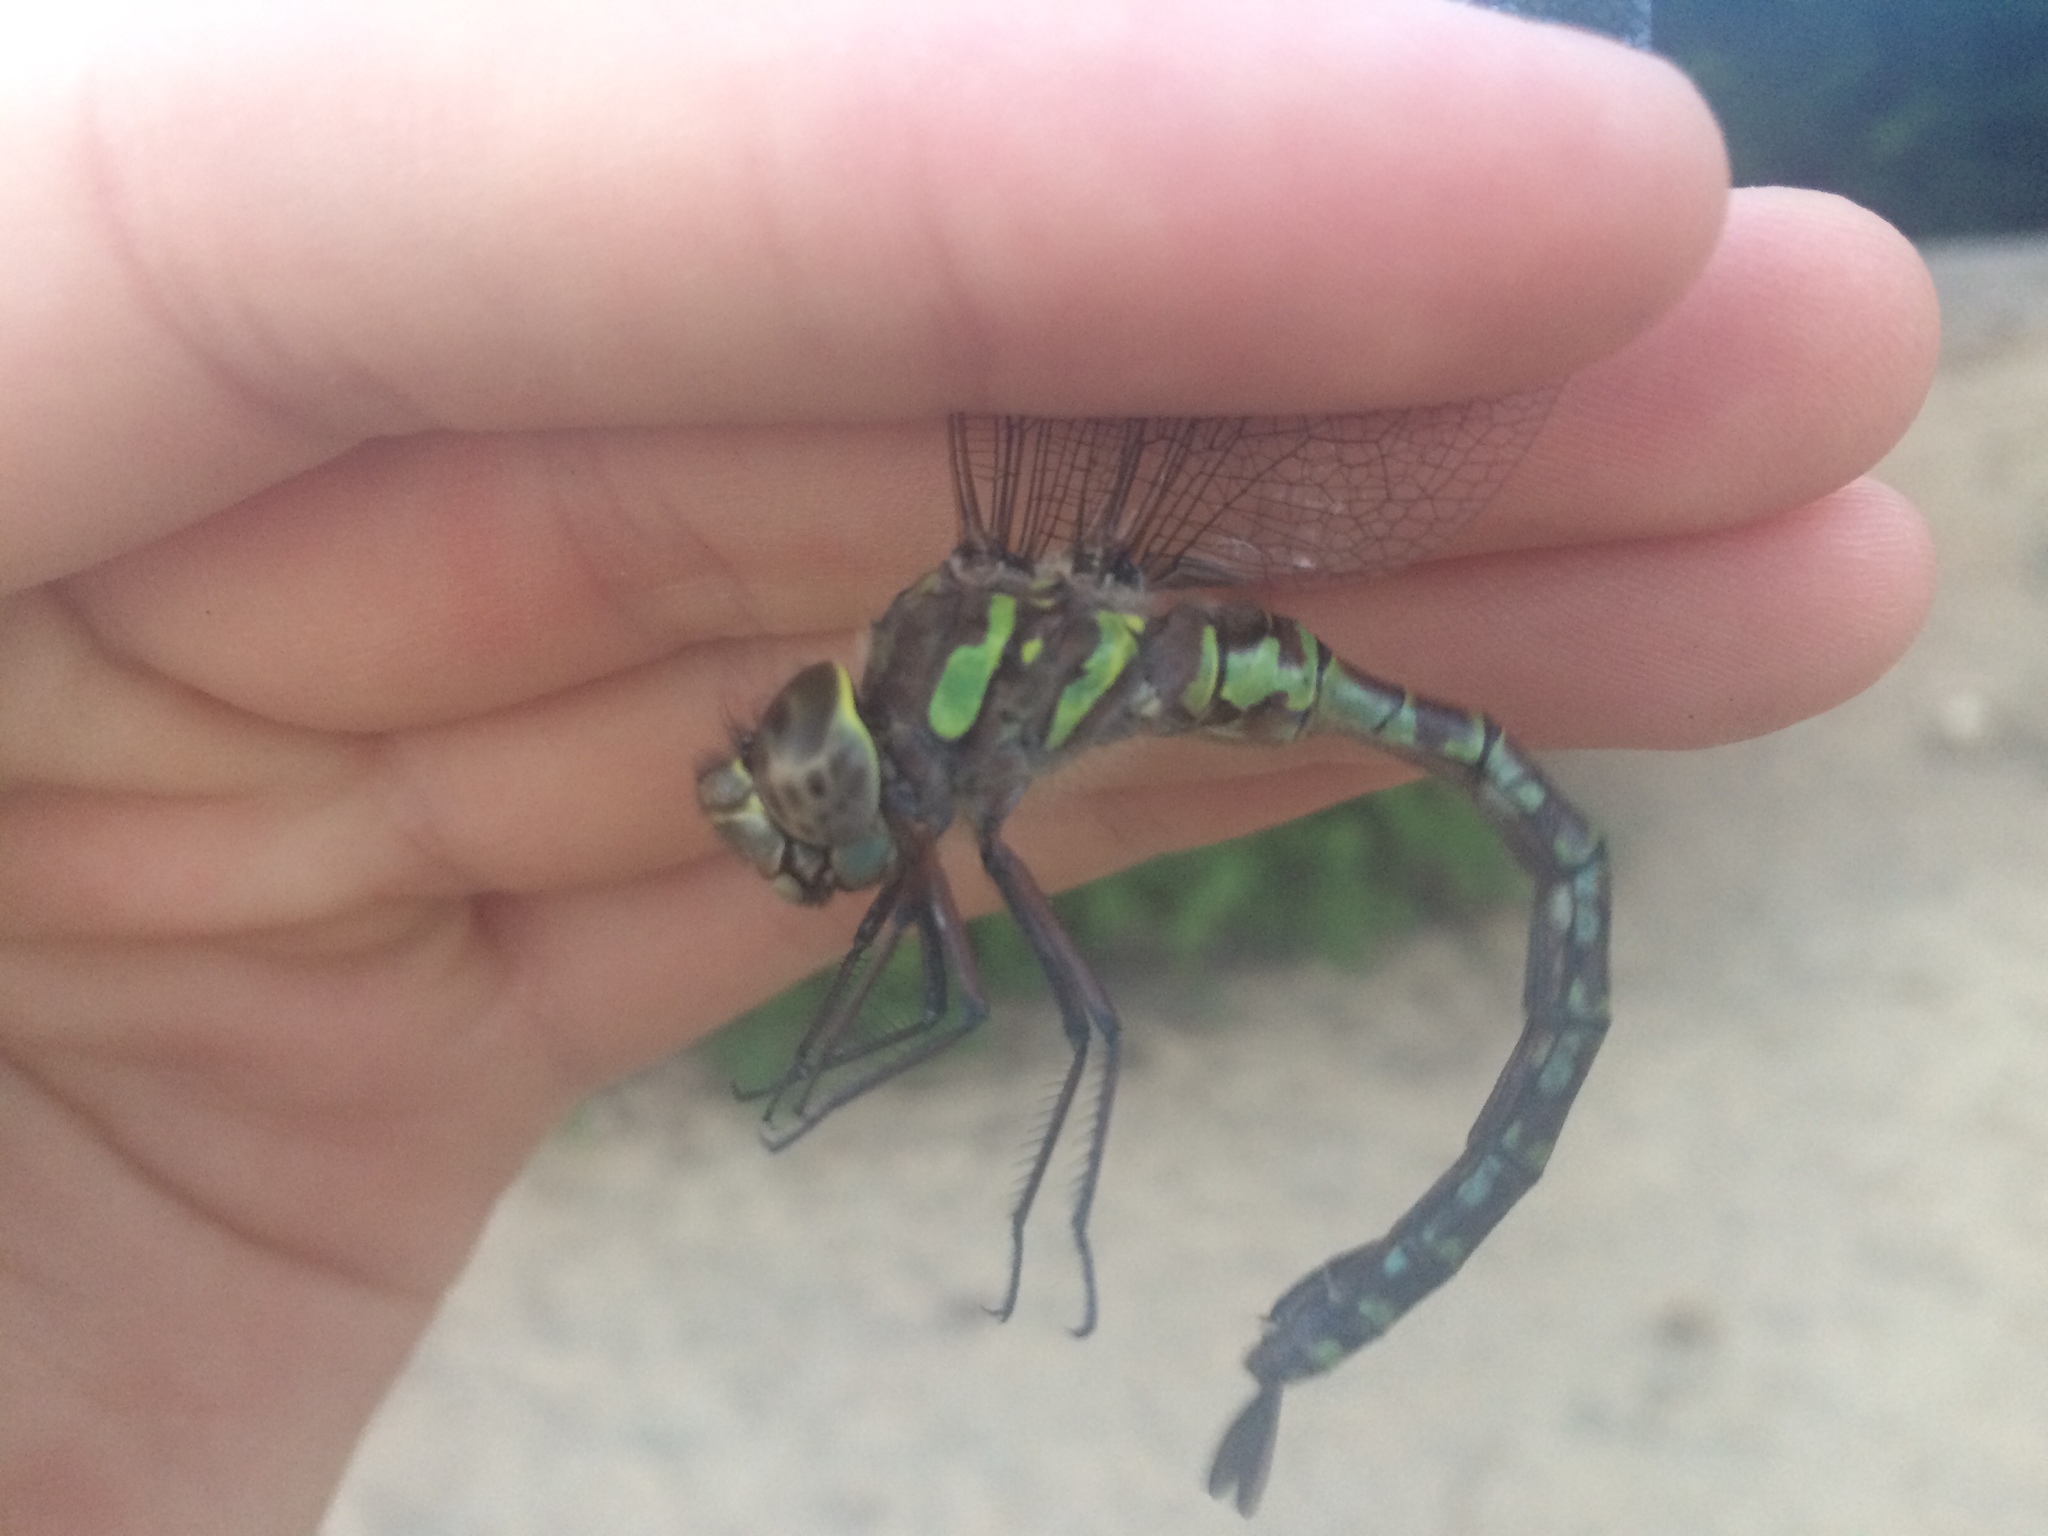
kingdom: Animalia
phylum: Arthropoda
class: Insecta
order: Odonata
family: Aeshnidae
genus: Aeshna
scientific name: Aeshna canadensis
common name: Canada darner
